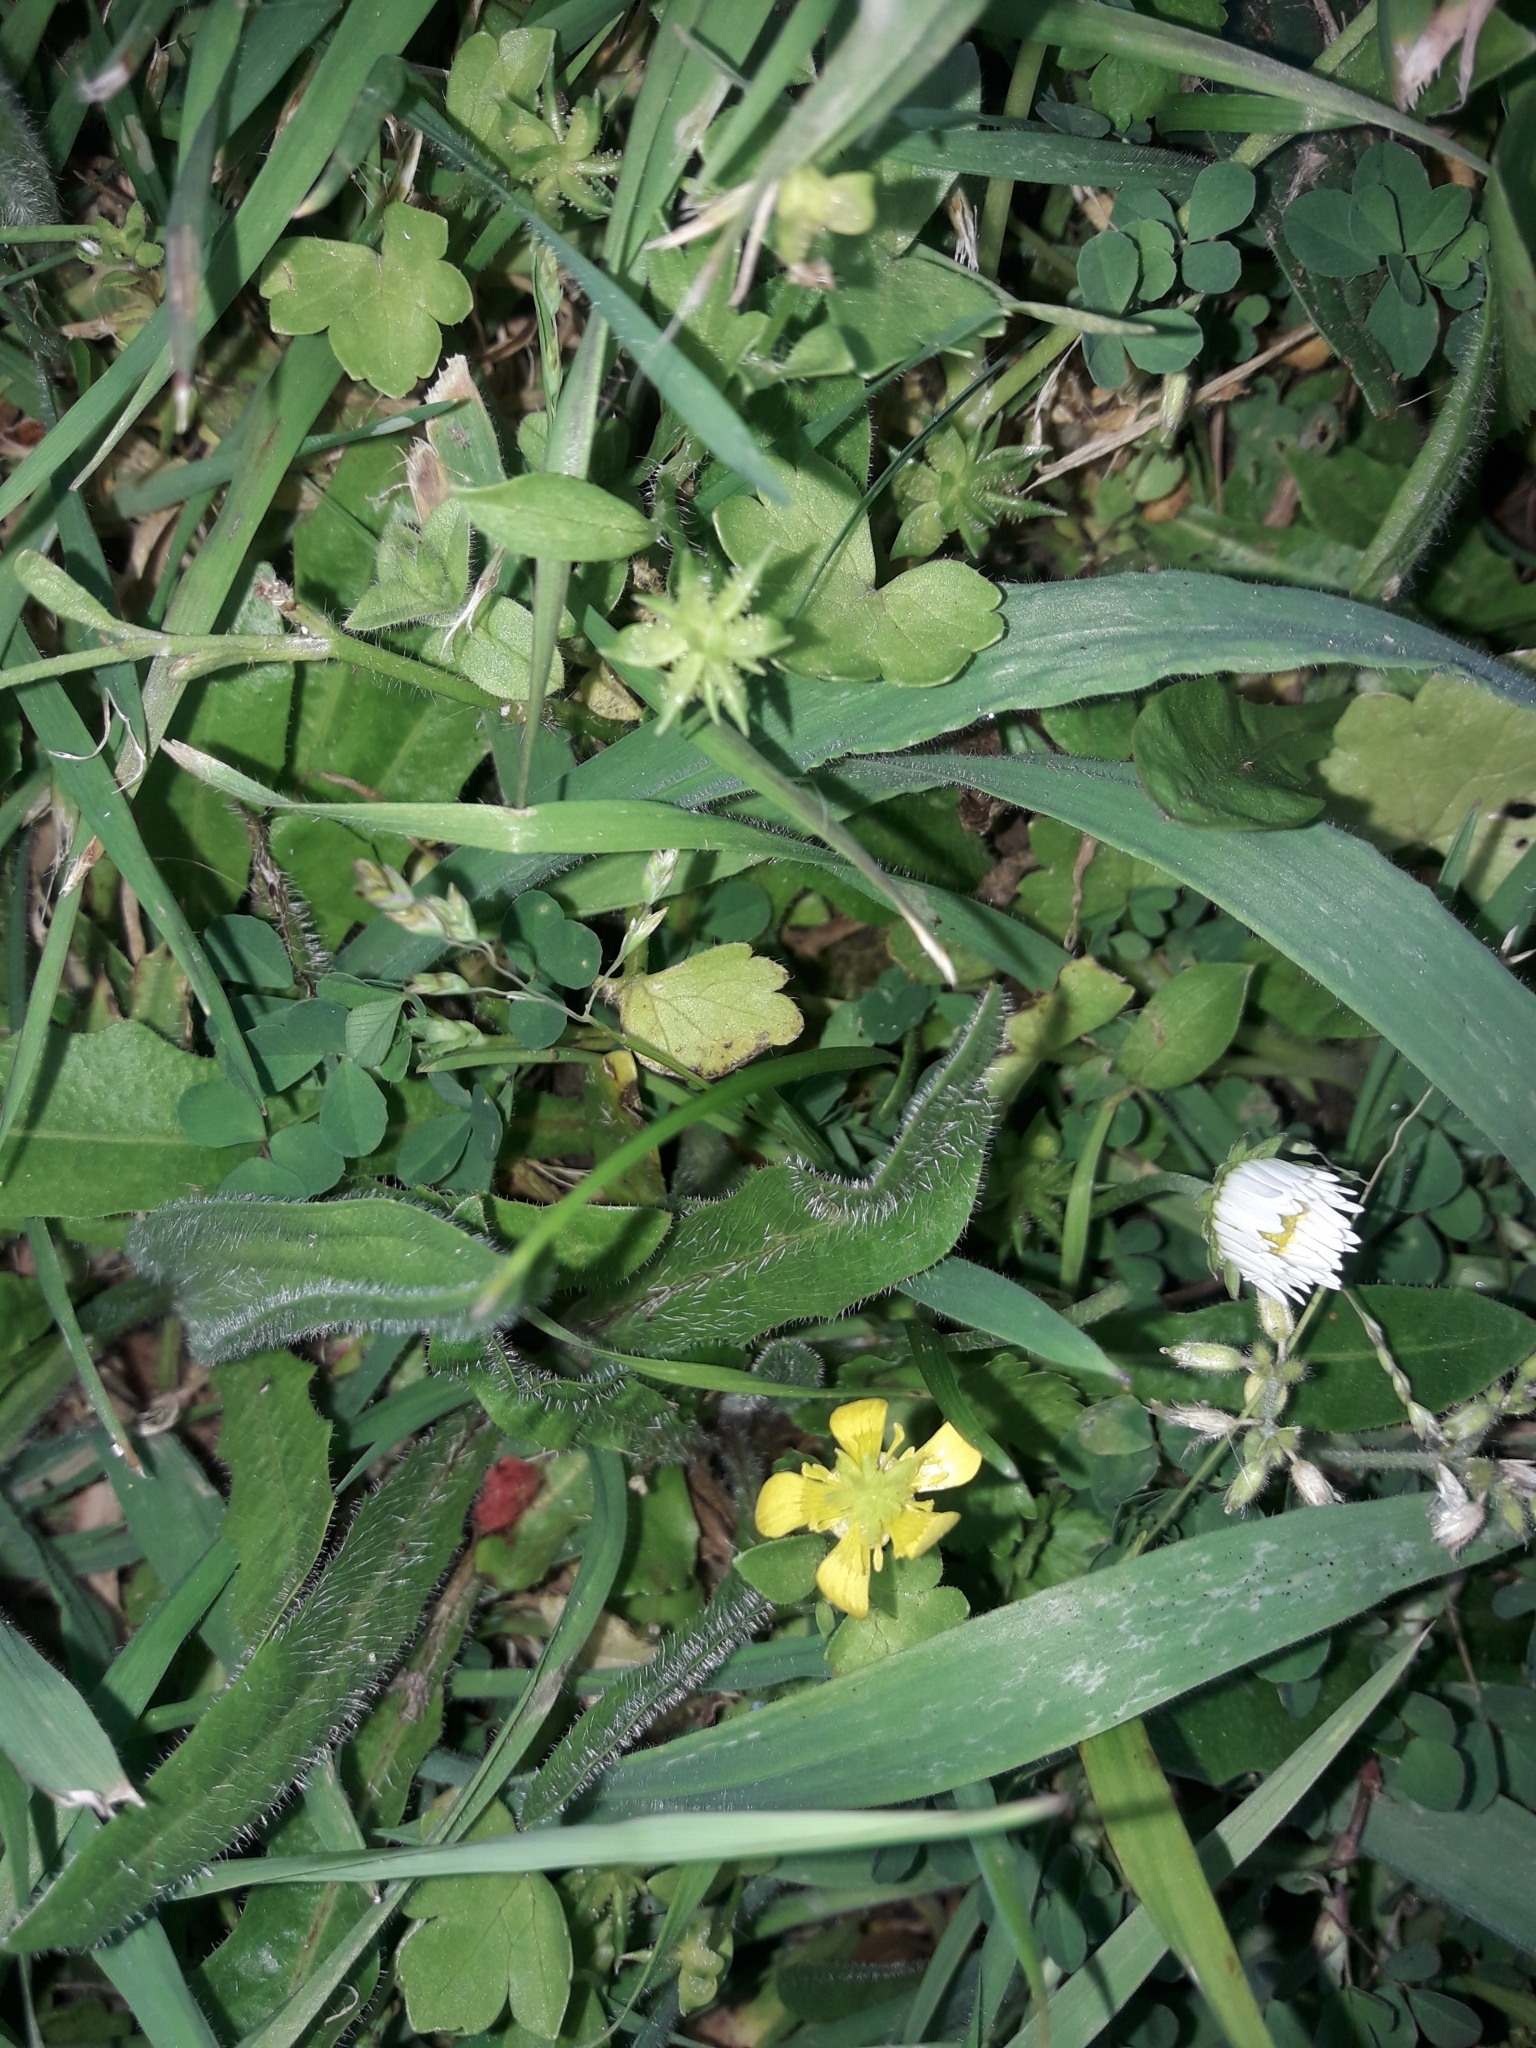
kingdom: Plantae
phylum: Tracheophyta
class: Magnoliopsida
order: Ranunculales
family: Ranunculaceae
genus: Ranunculus
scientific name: Ranunculus muricatus
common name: Rough-fruited buttercup
